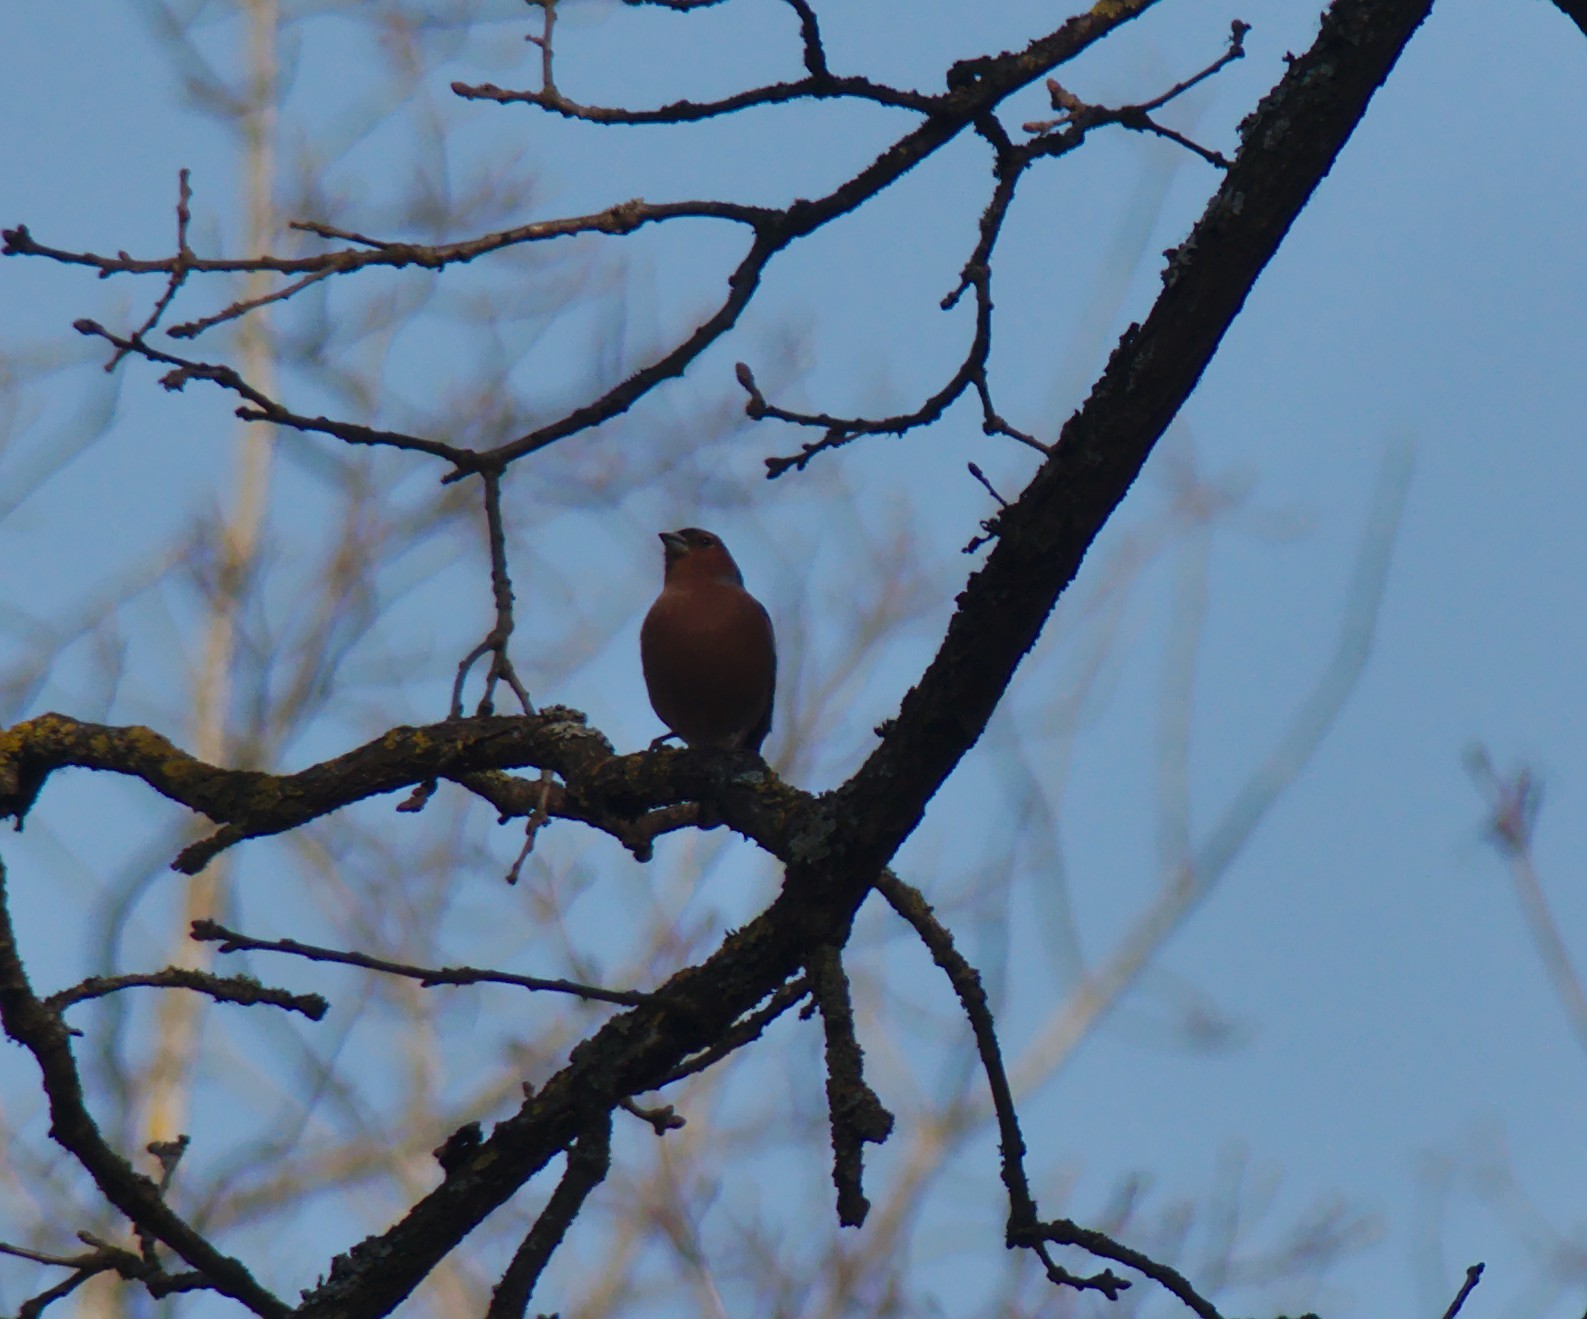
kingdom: Animalia
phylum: Chordata
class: Aves
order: Passeriformes
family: Fringillidae
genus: Fringilla
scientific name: Fringilla coelebs
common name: Common chaffinch
